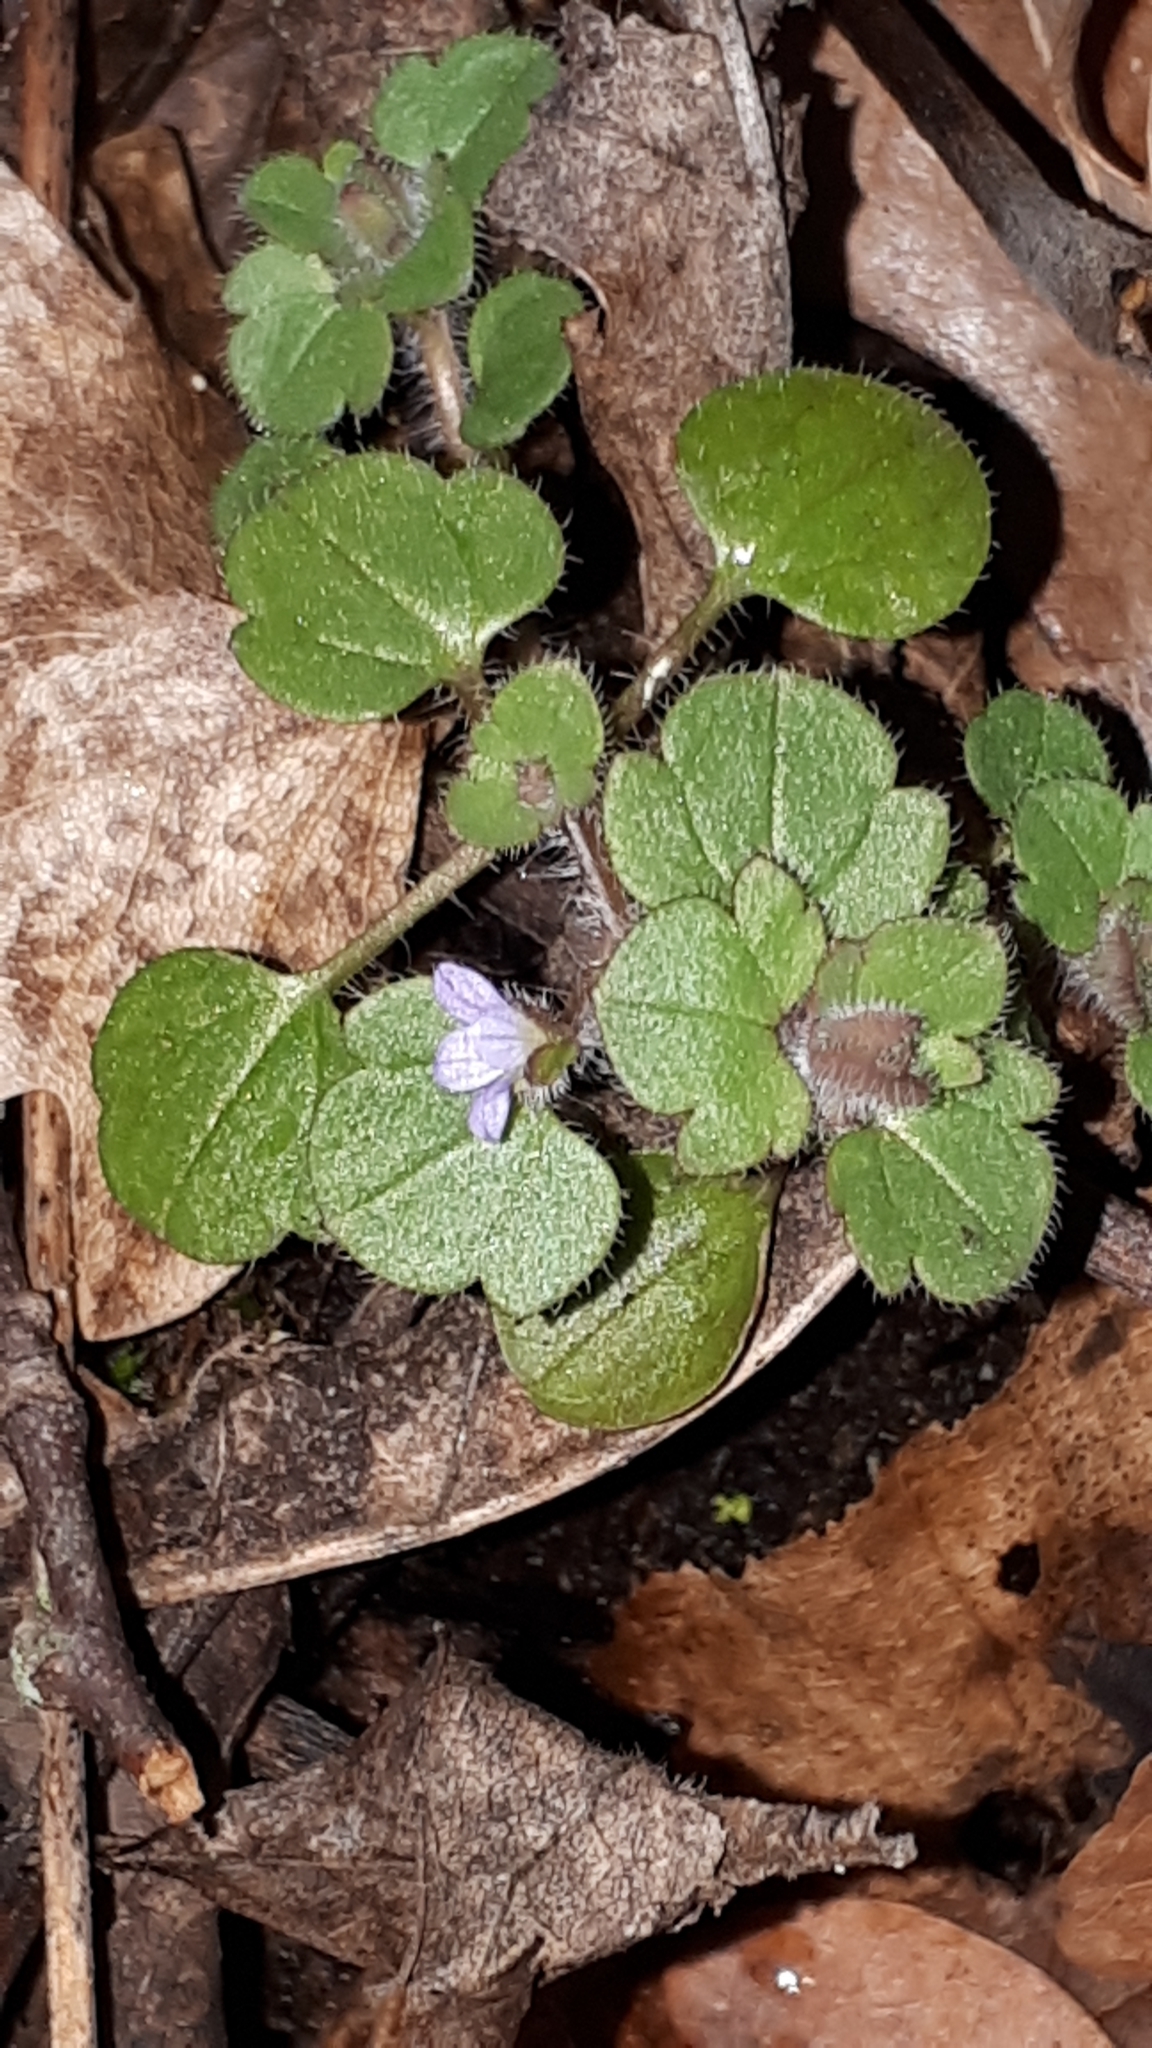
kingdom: Plantae
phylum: Tracheophyta
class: Magnoliopsida
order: Lamiales
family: Plantaginaceae
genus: Veronica
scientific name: Veronica hederifolia
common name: Ivy-leaved speedwell
